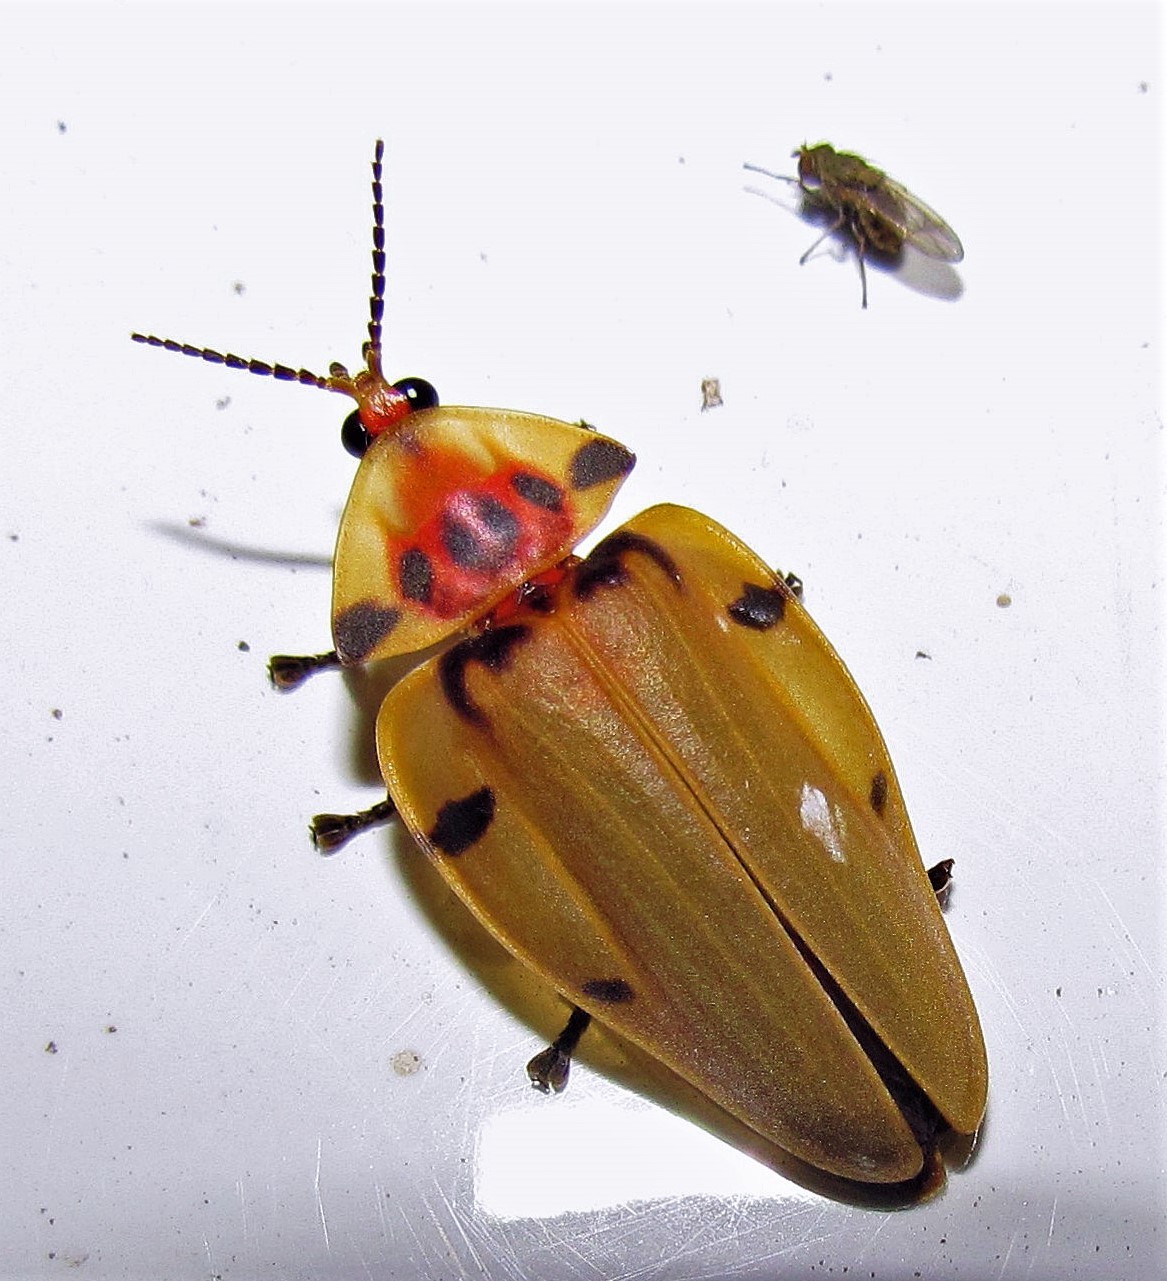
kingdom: Animalia
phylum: Arthropoda
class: Insecta
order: Coleoptera
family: Lampyridae
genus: Aspisoma
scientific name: Aspisoma sticticum
